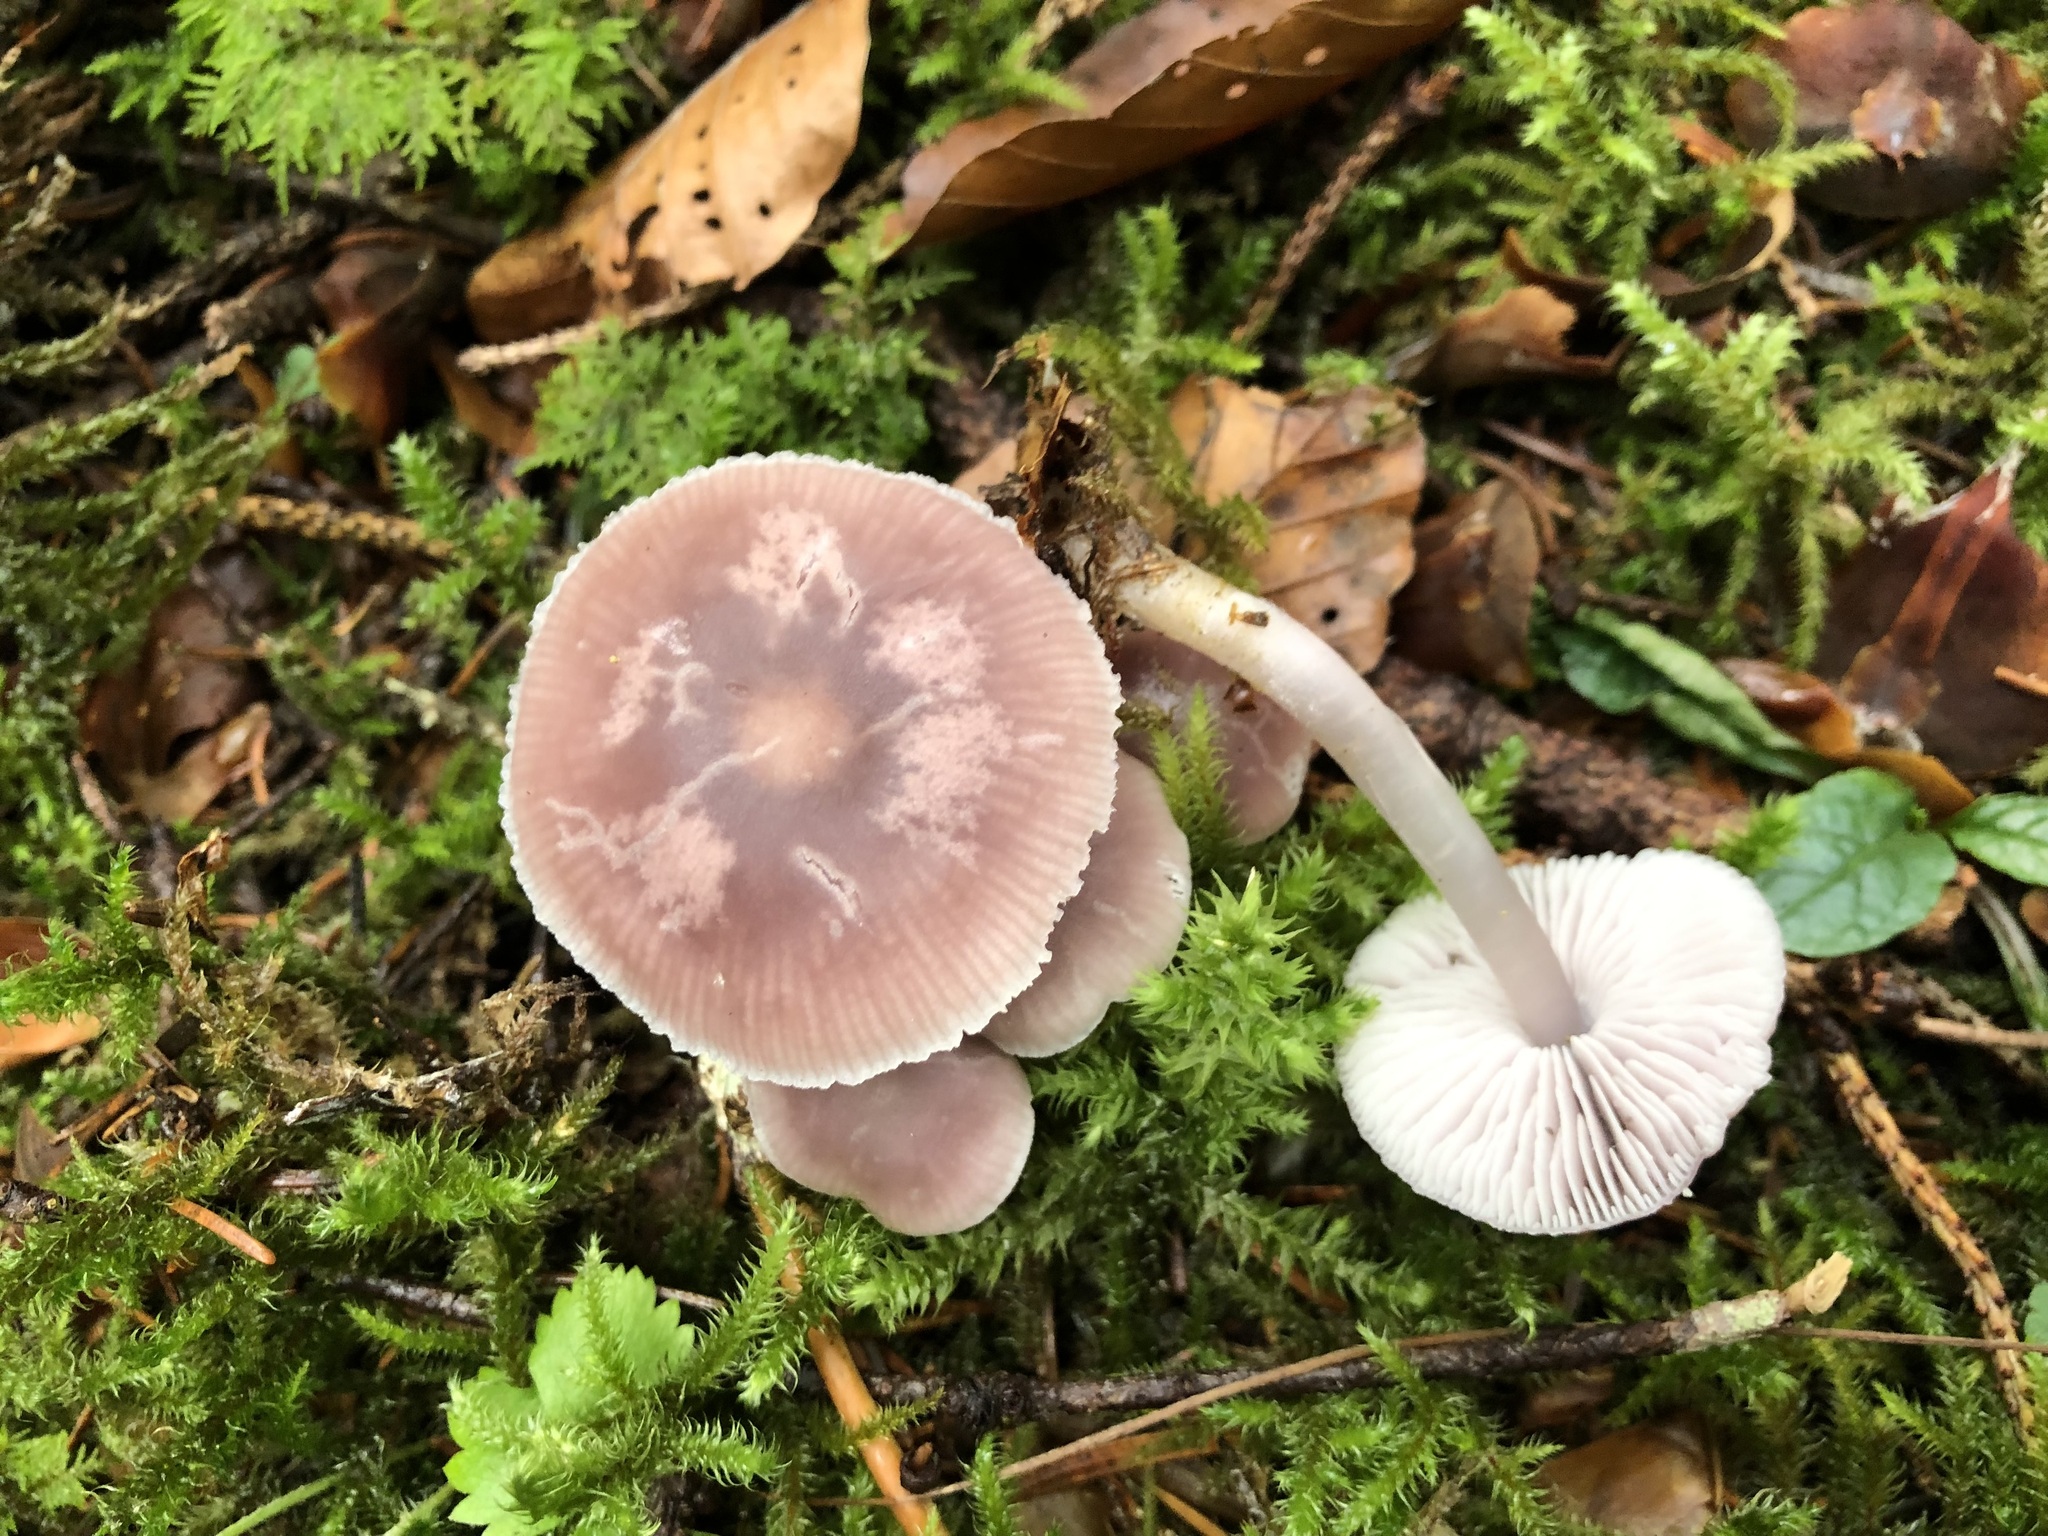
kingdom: Fungi
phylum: Basidiomycota
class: Agaricomycetes
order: Agaricales
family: Mycenaceae
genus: Mycena
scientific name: Mycena pura
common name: Lilac bonnet
